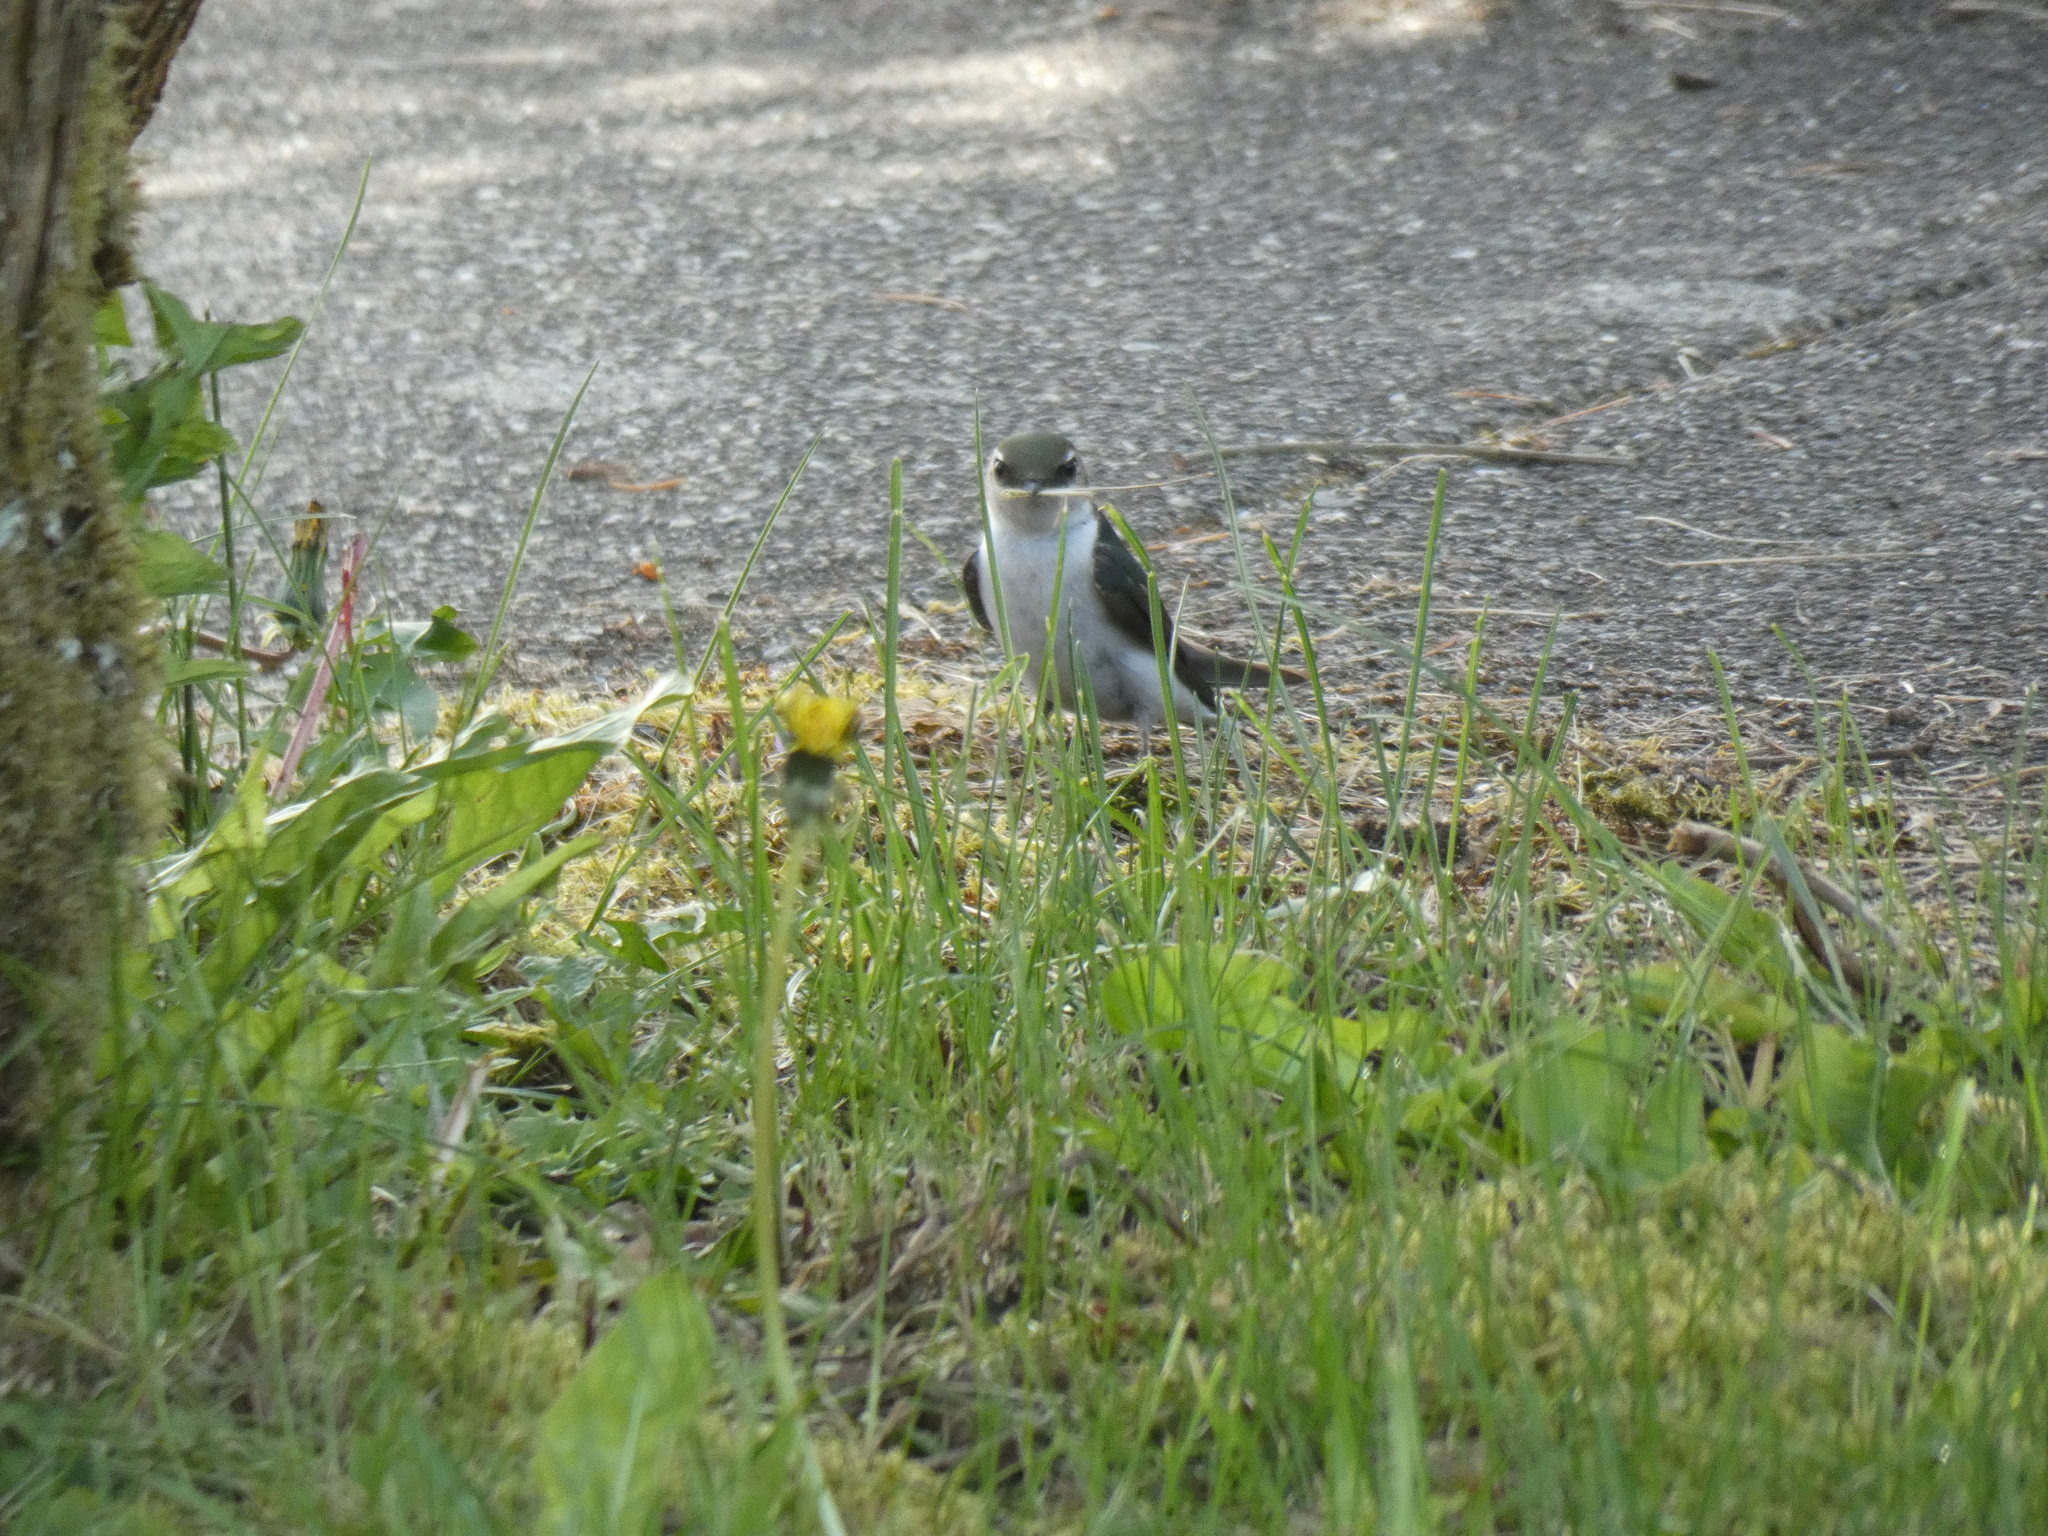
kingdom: Animalia
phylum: Chordata
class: Aves
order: Passeriformes
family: Hirundinidae
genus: Tachycineta
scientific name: Tachycineta thalassina
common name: Violet-green swallow
